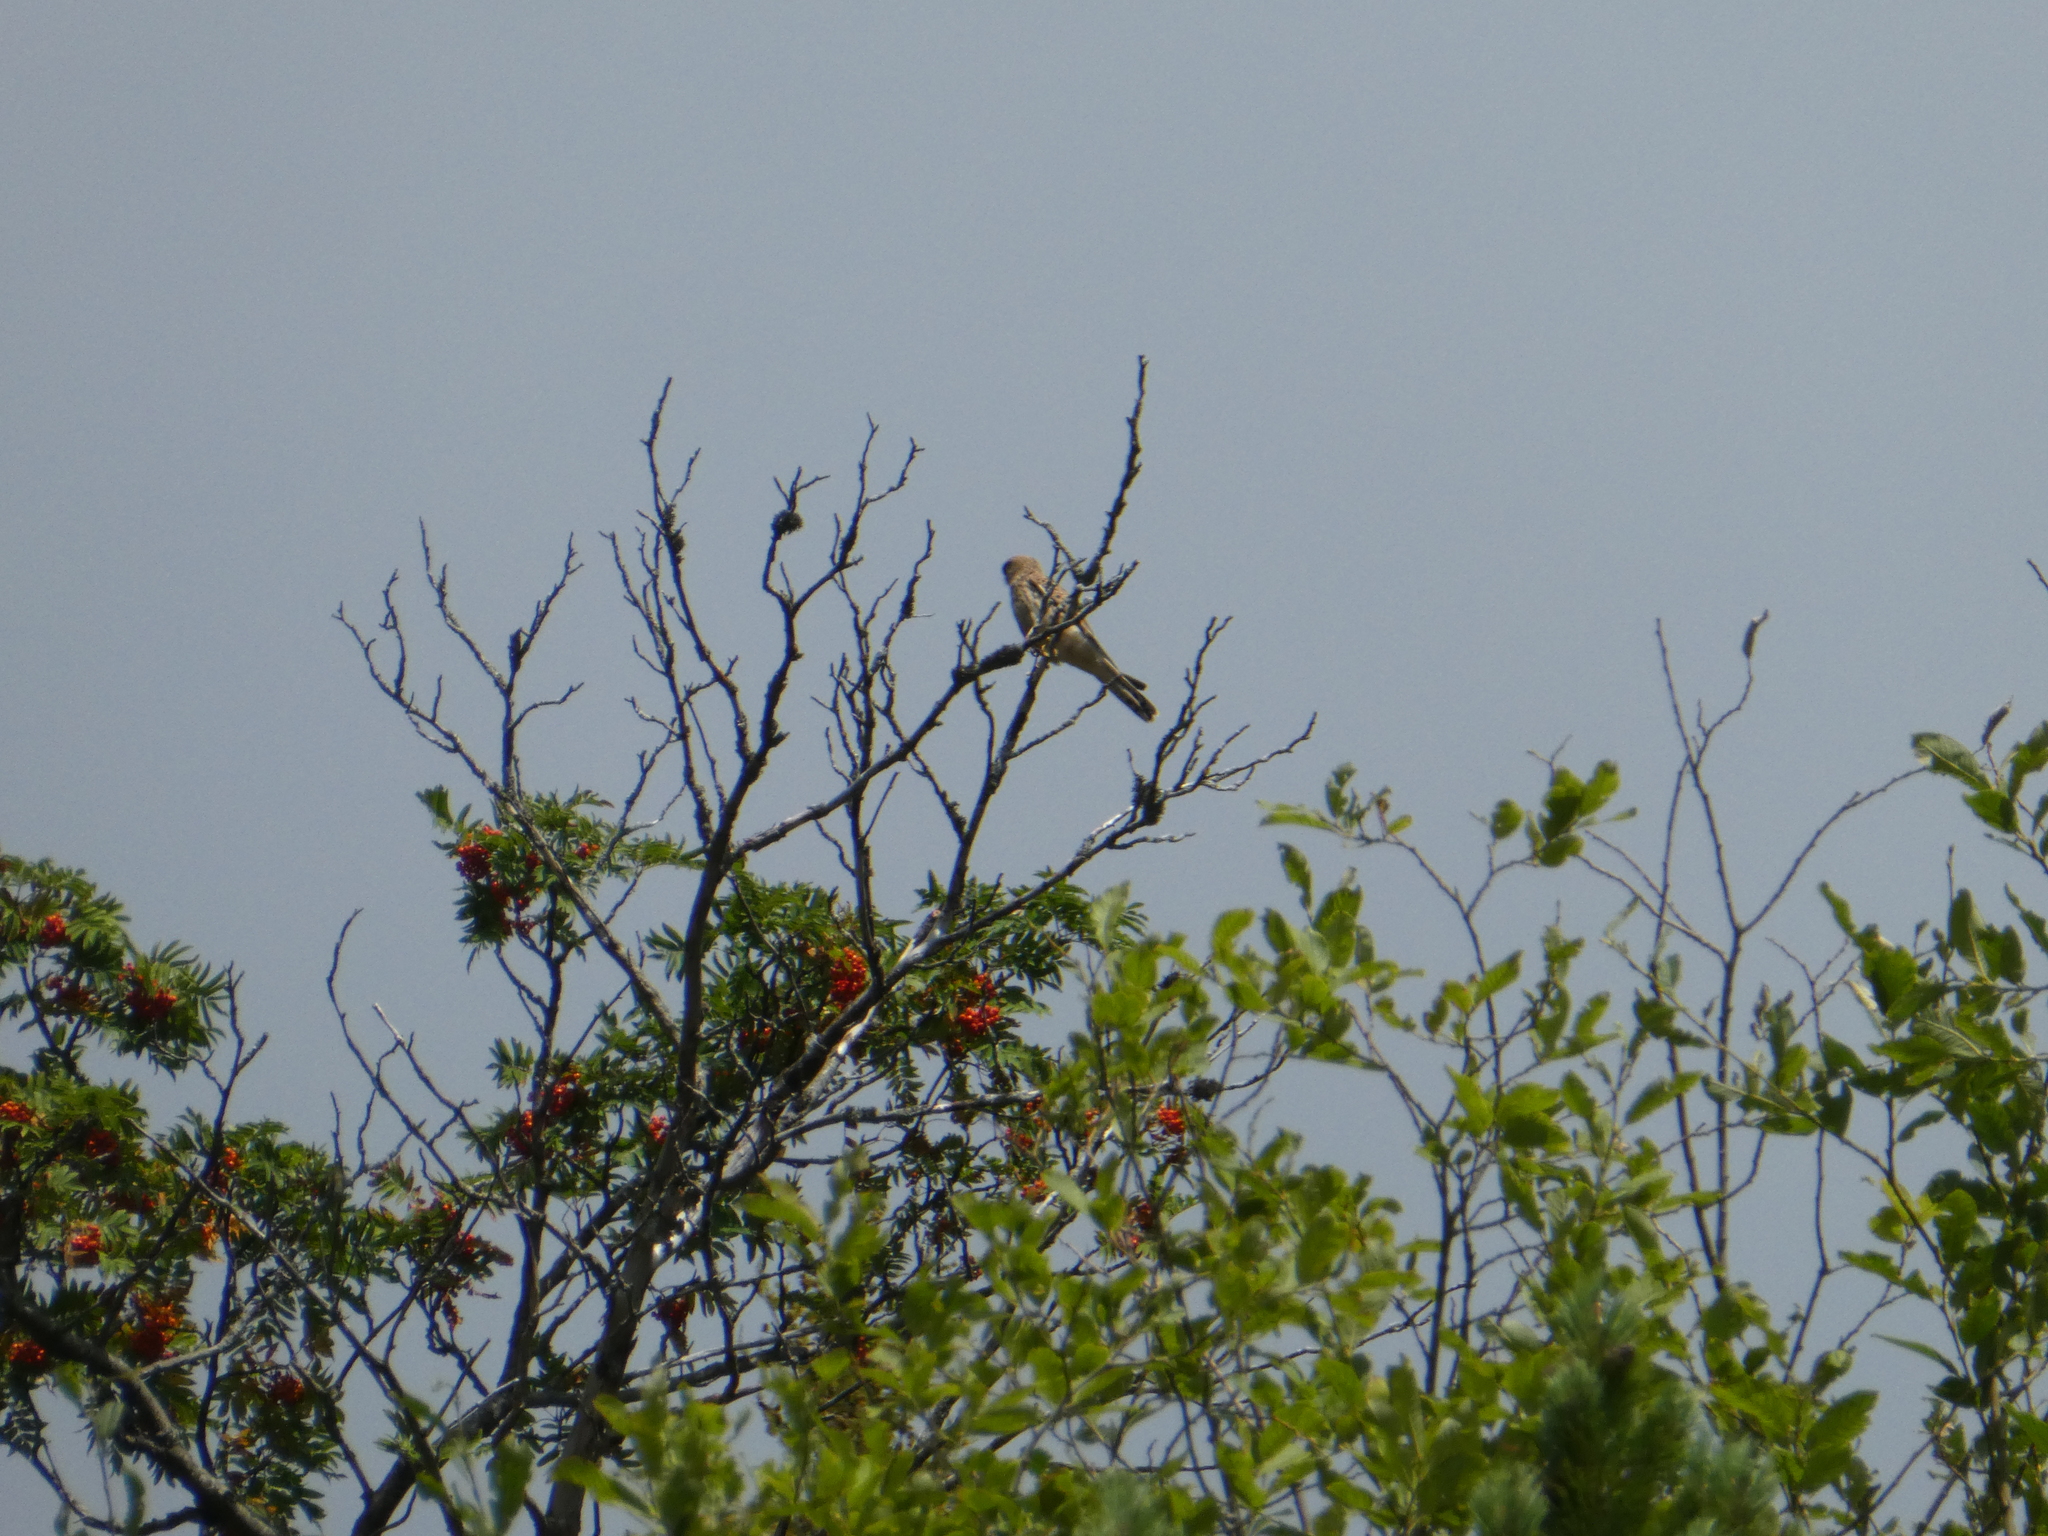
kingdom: Animalia
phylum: Chordata
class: Aves
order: Falconiformes
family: Falconidae
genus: Falco
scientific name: Falco tinnunculus
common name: Common kestrel
